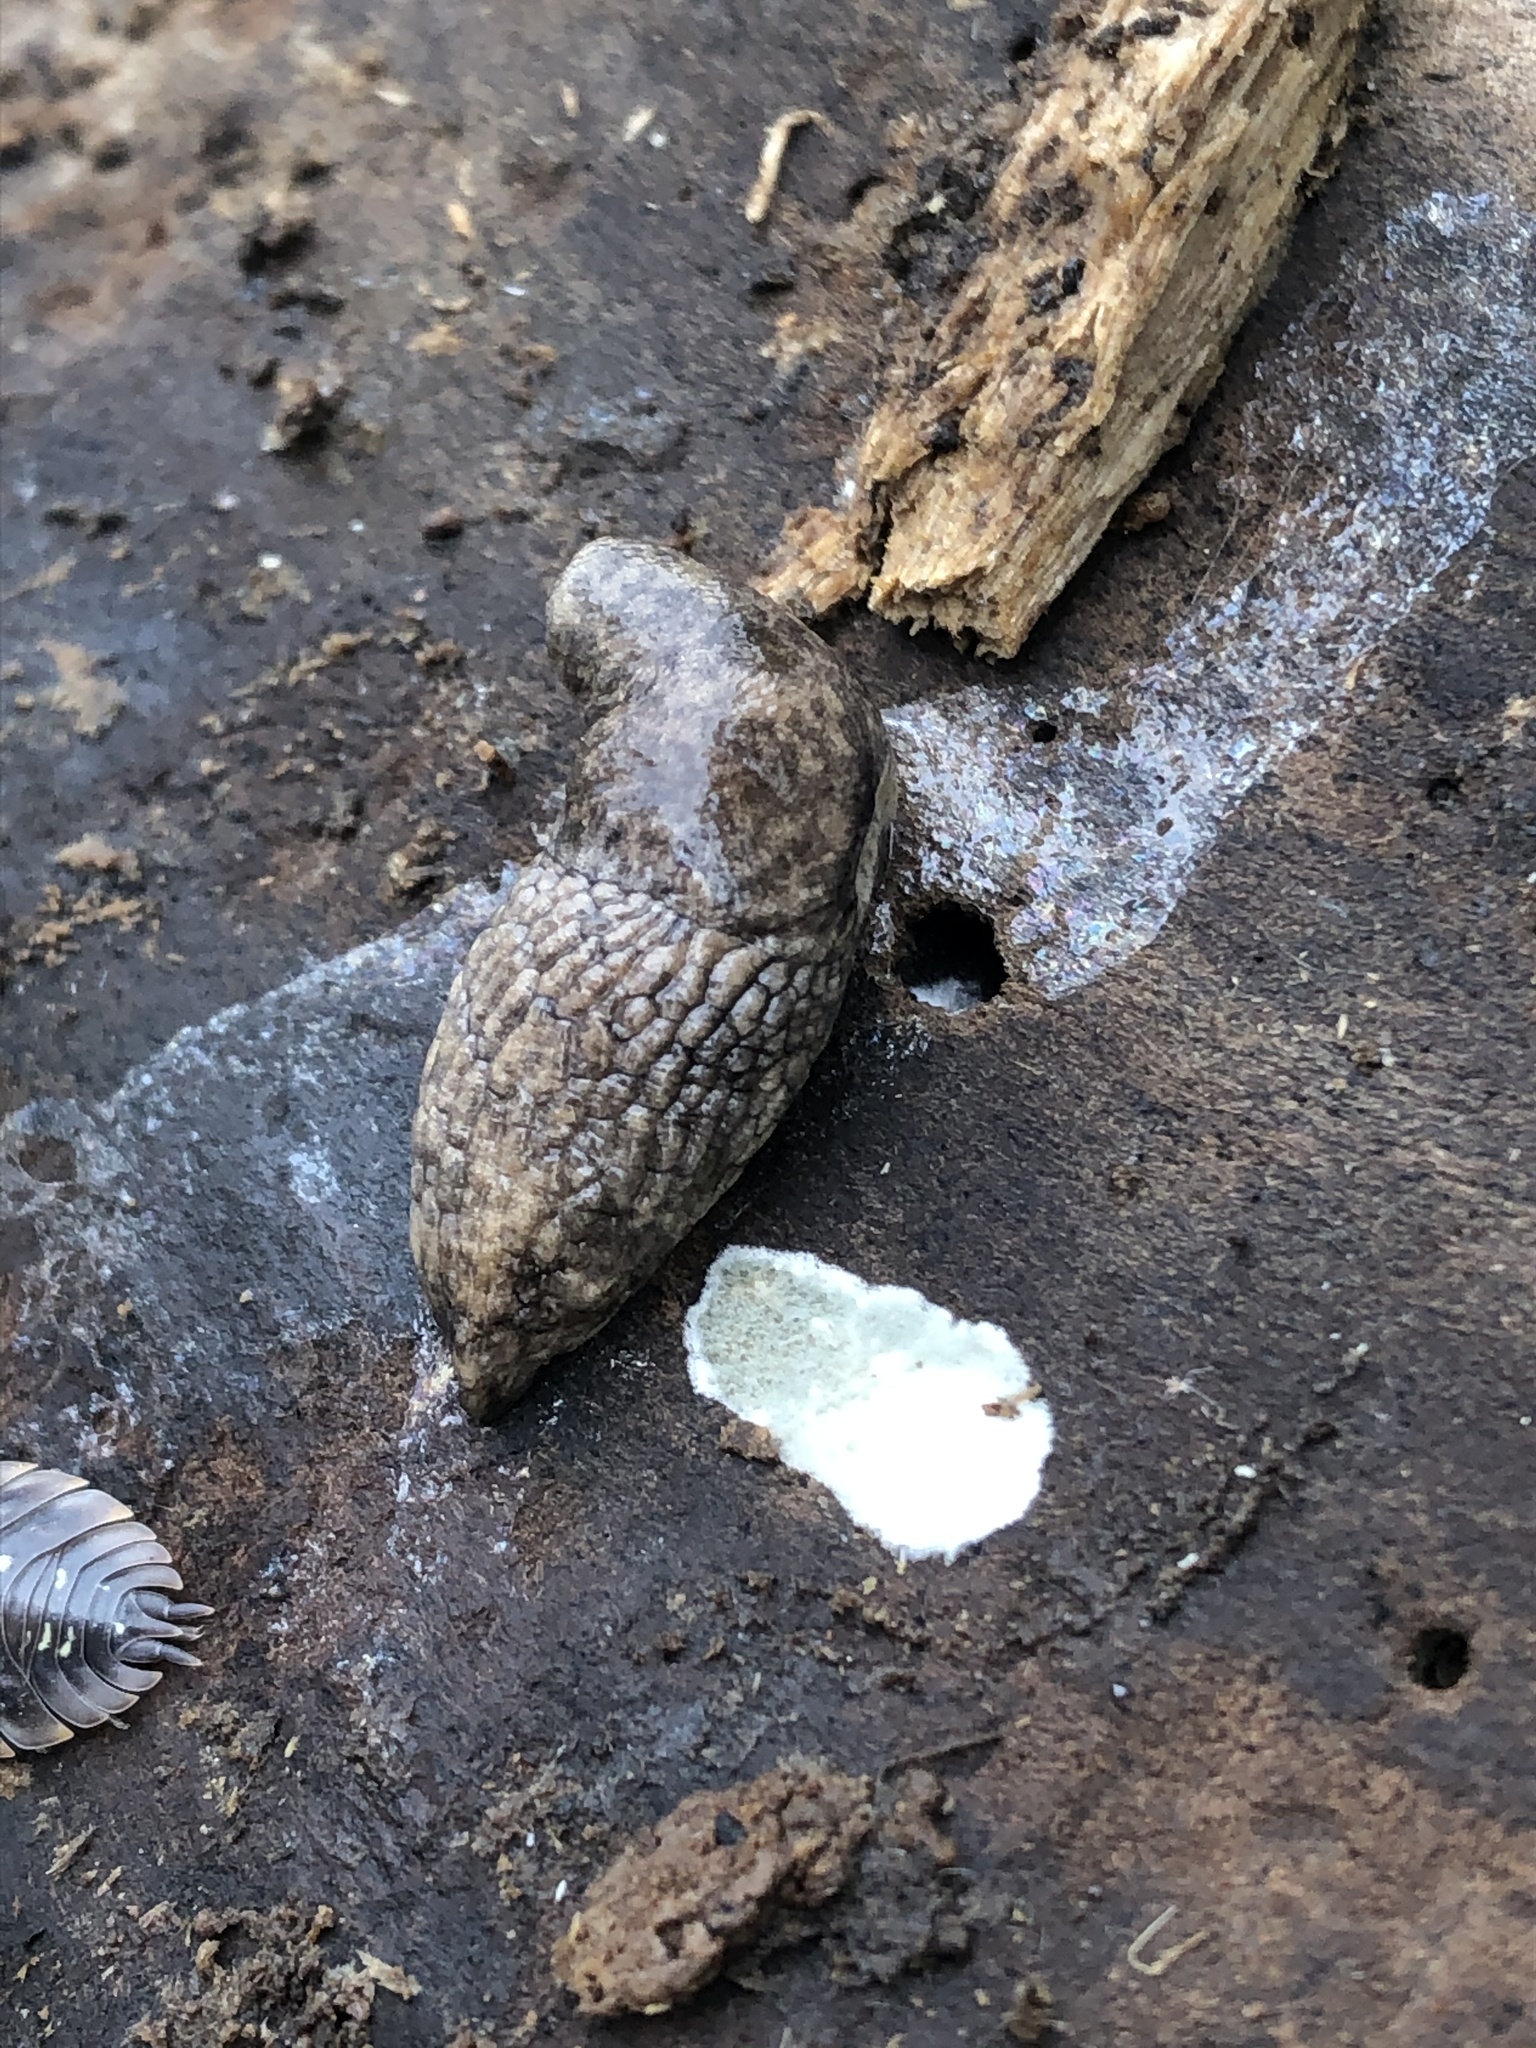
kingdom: Animalia
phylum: Mollusca
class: Gastropoda
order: Stylommatophora
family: Agriolimacidae
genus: Deroceras
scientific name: Deroceras reticulatum
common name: Gray field slug
